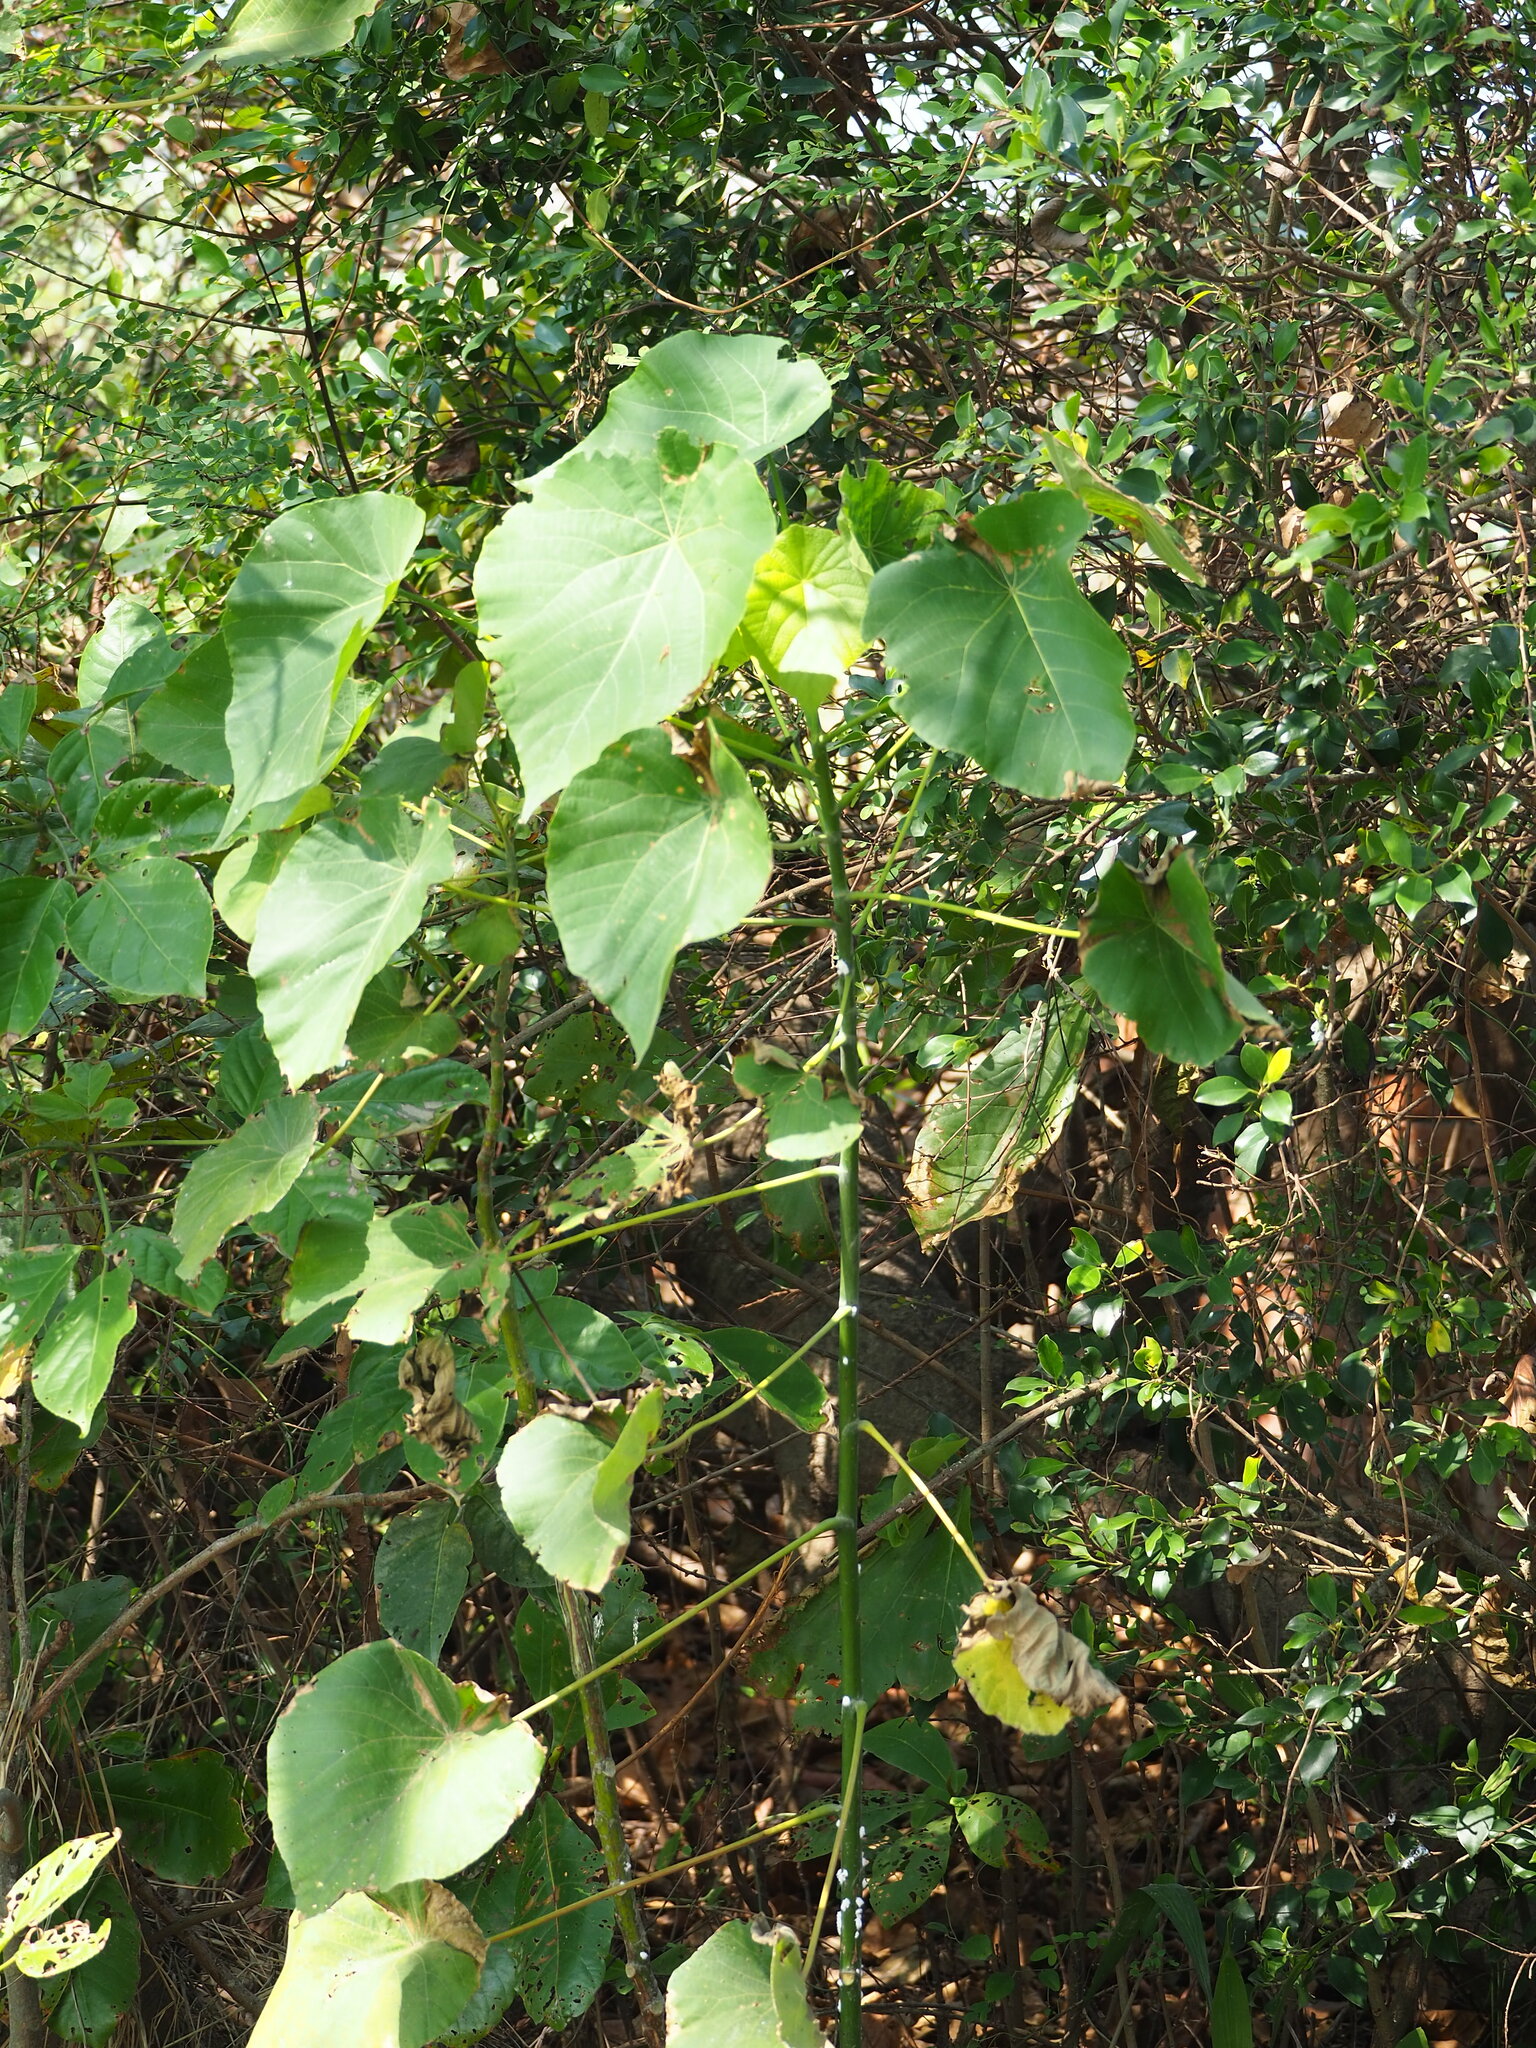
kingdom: Plantae
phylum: Tracheophyta
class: Magnoliopsida
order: Malpighiales
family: Euphorbiaceae
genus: Macaranga
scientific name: Macaranga tanarius
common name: Parasol leaf tree
